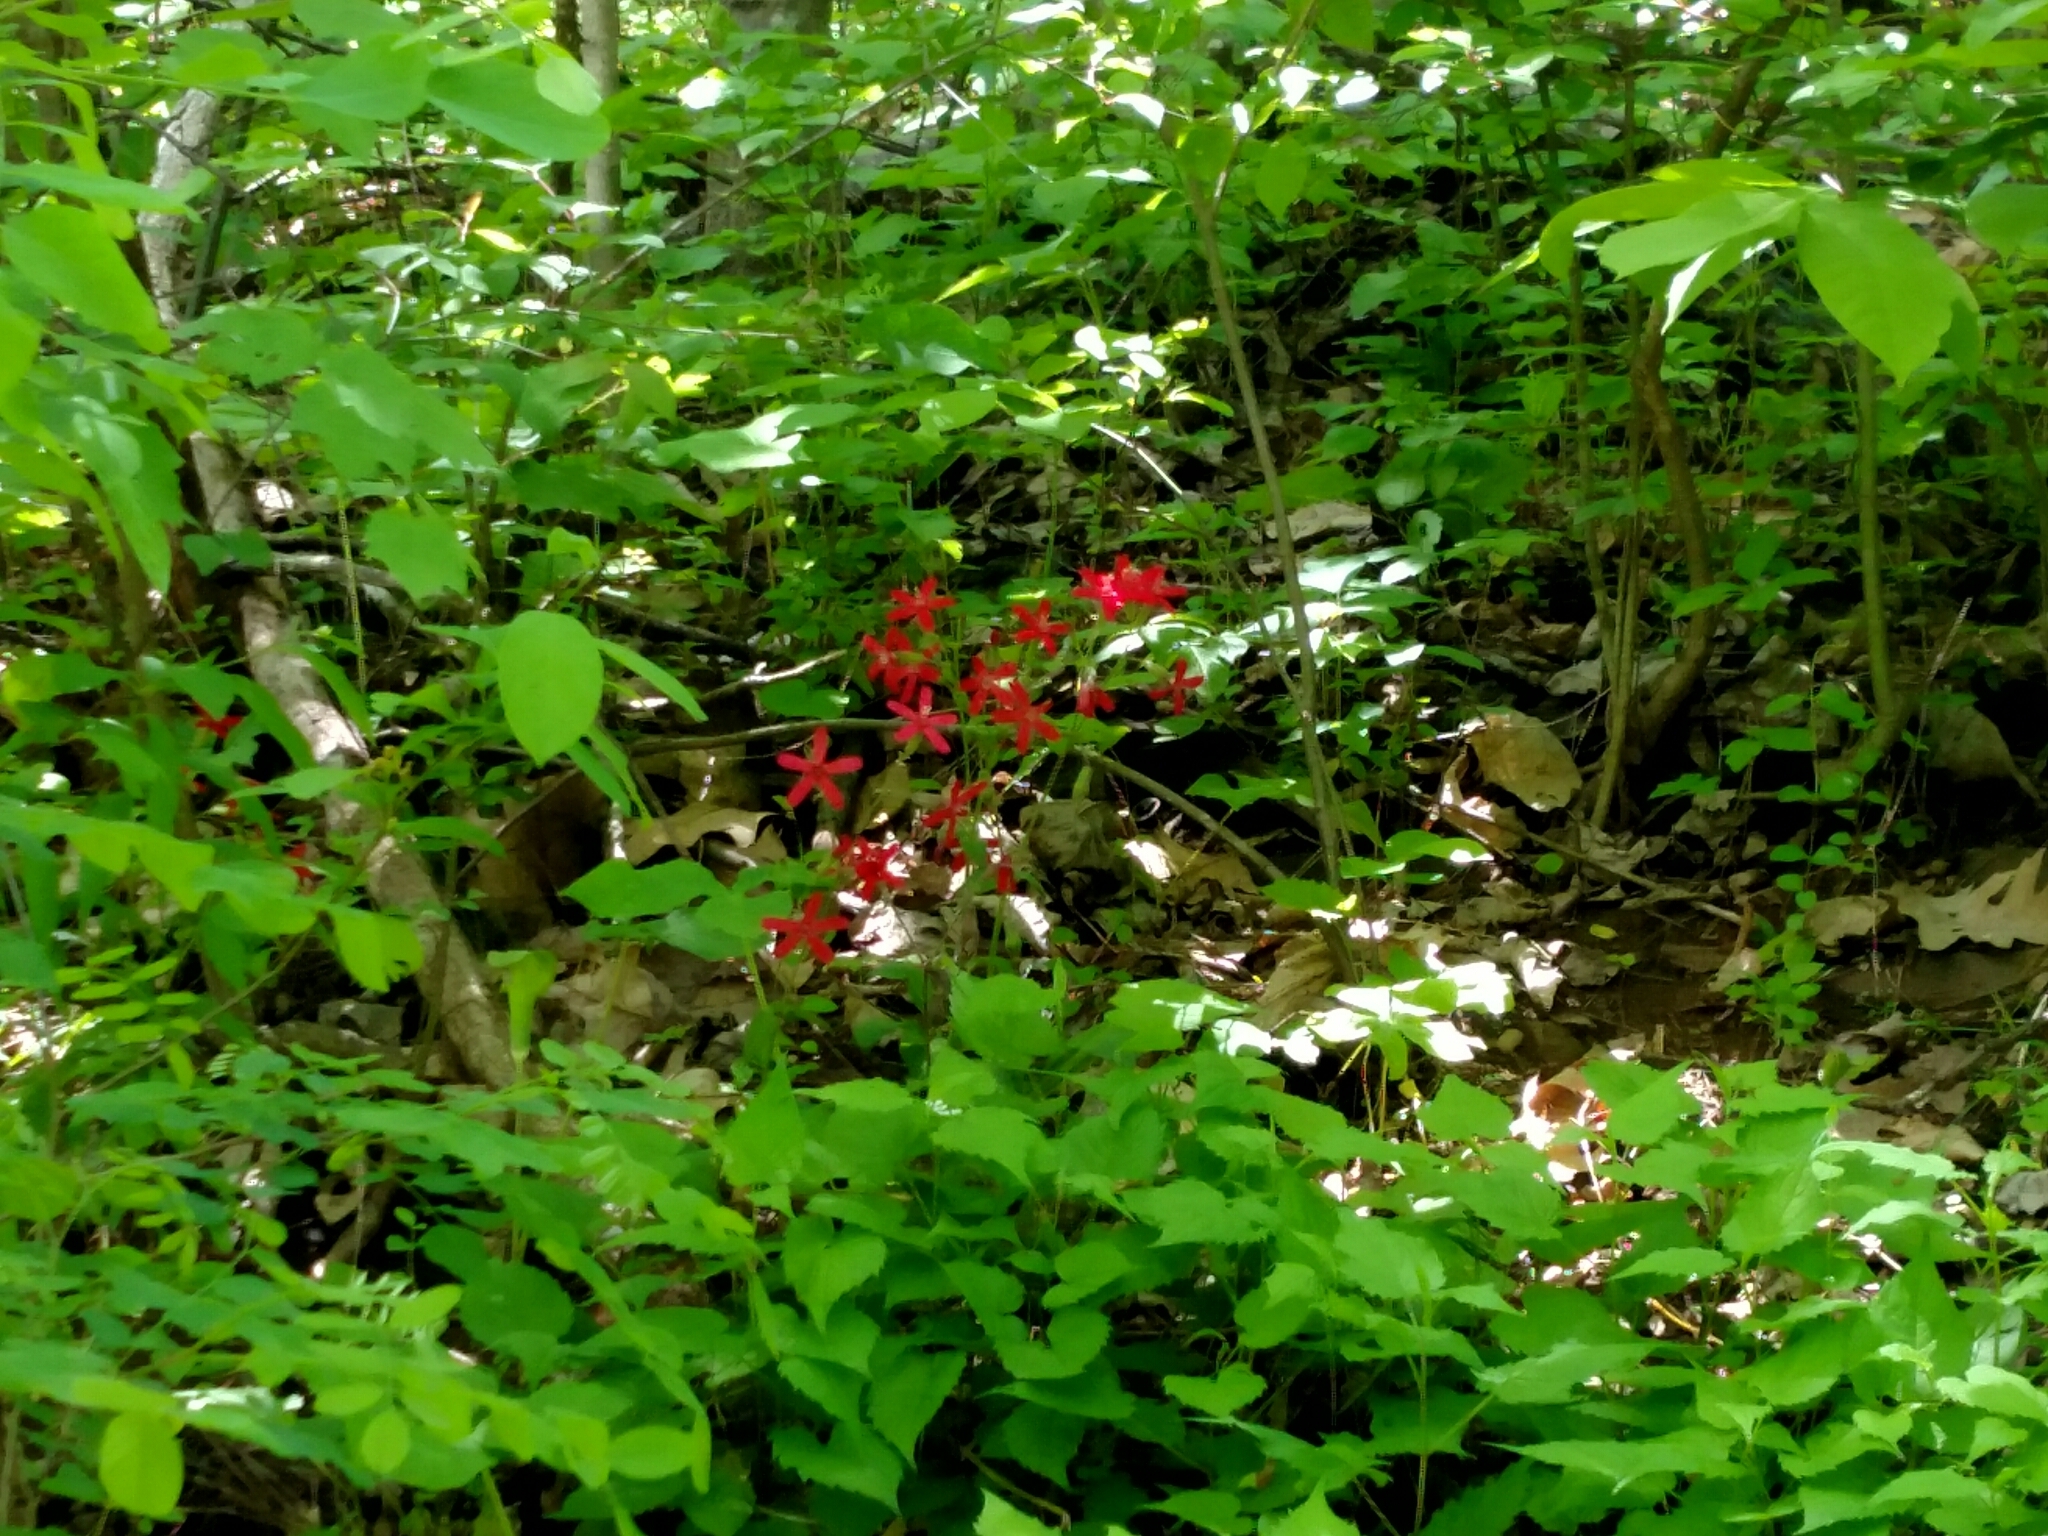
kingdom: Plantae
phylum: Tracheophyta
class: Magnoliopsida
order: Caryophyllales
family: Caryophyllaceae
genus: Silene
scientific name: Silene virginica
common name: Fire-pink
